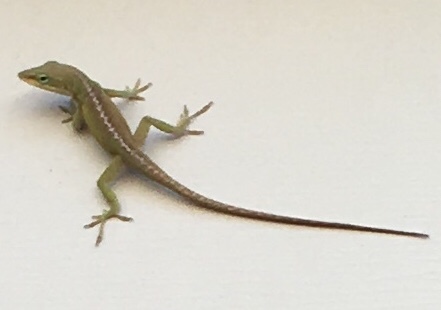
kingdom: Animalia
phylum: Chordata
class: Squamata
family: Dactyloidae
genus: Anolis
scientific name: Anolis carolinensis
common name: Green anole
